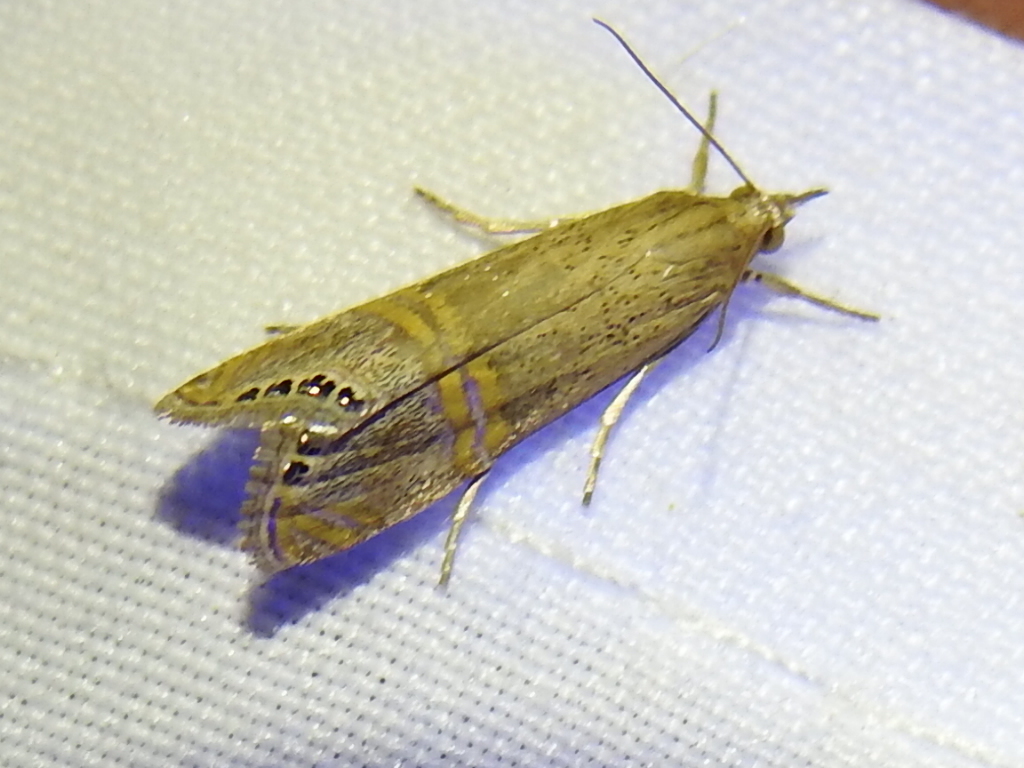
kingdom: Animalia
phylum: Arthropoda
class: Insecta
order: Lepidoptera
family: Crambidae
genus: Euchromius
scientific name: Euchromius ocellea
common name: Necklace veneer moth
